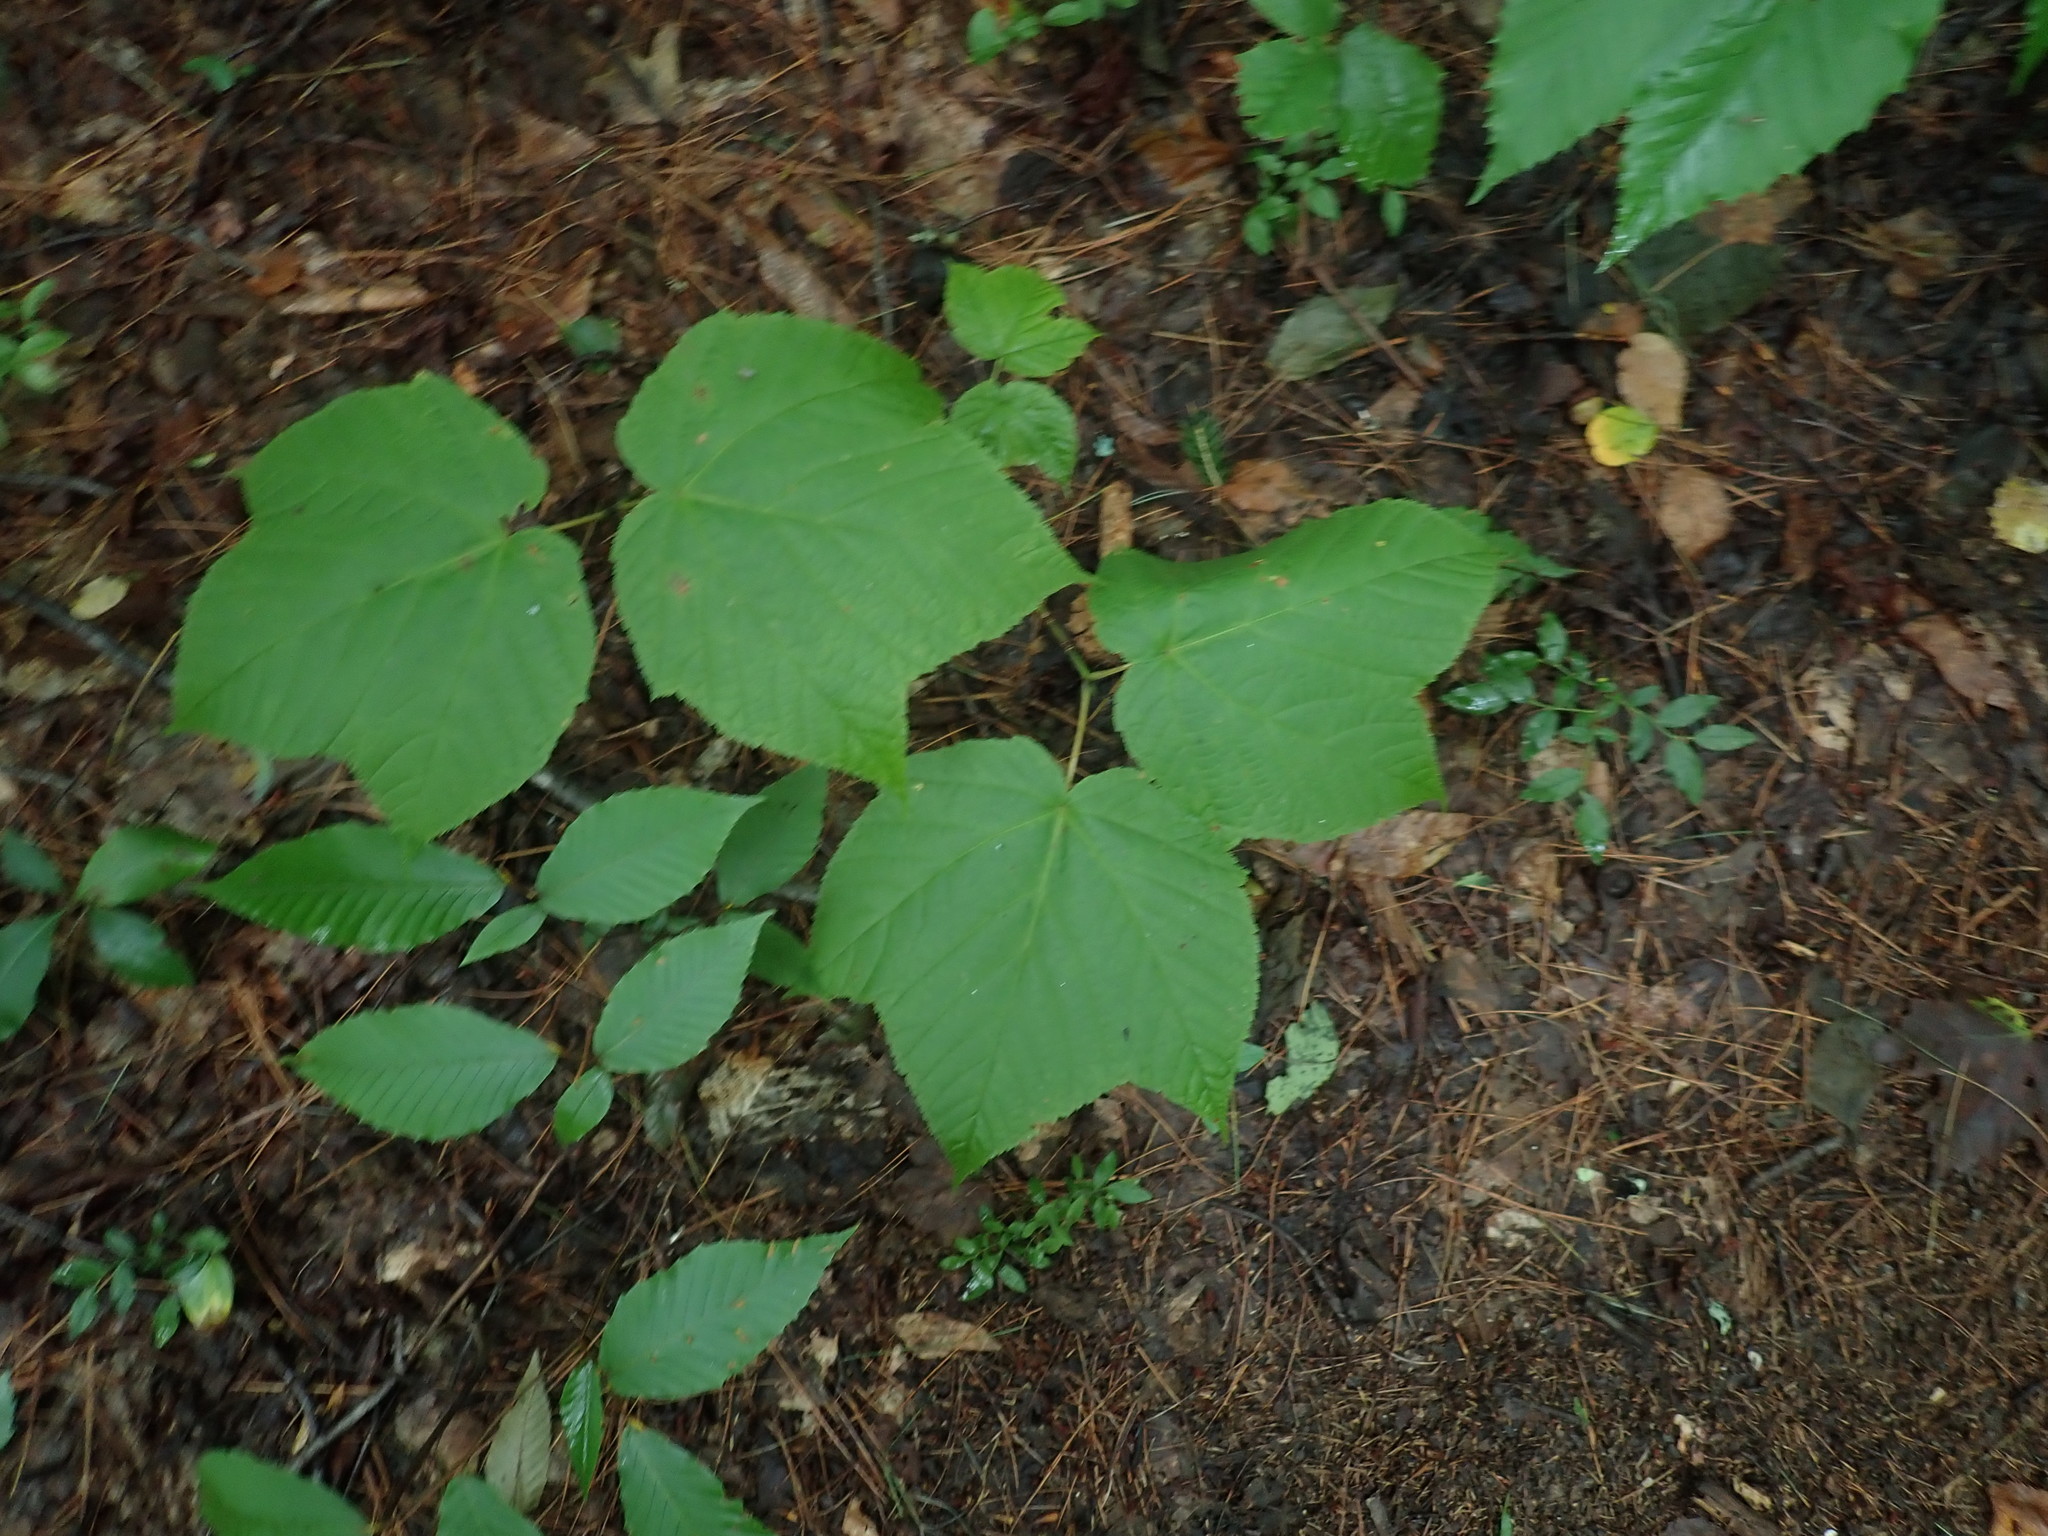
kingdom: Plantae
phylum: Tracheophyta
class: Magnoliopsida
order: Sapindales
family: Sapindaceae
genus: Acer
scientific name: Acer pensylvanicum
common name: Moosewood
